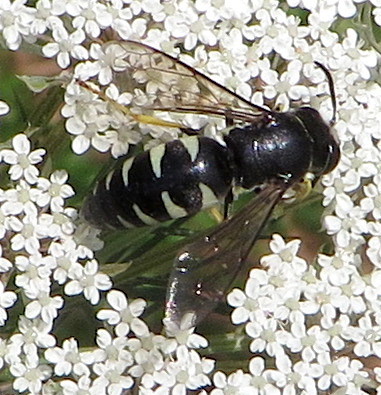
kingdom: Animalia
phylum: Arthropoda
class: Insecta
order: Hymenoptera
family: Crabronidae
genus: Bicyrtes
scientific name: Bicyrtes quadrifasciatus
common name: Four-banded stink bug hunter wasp
